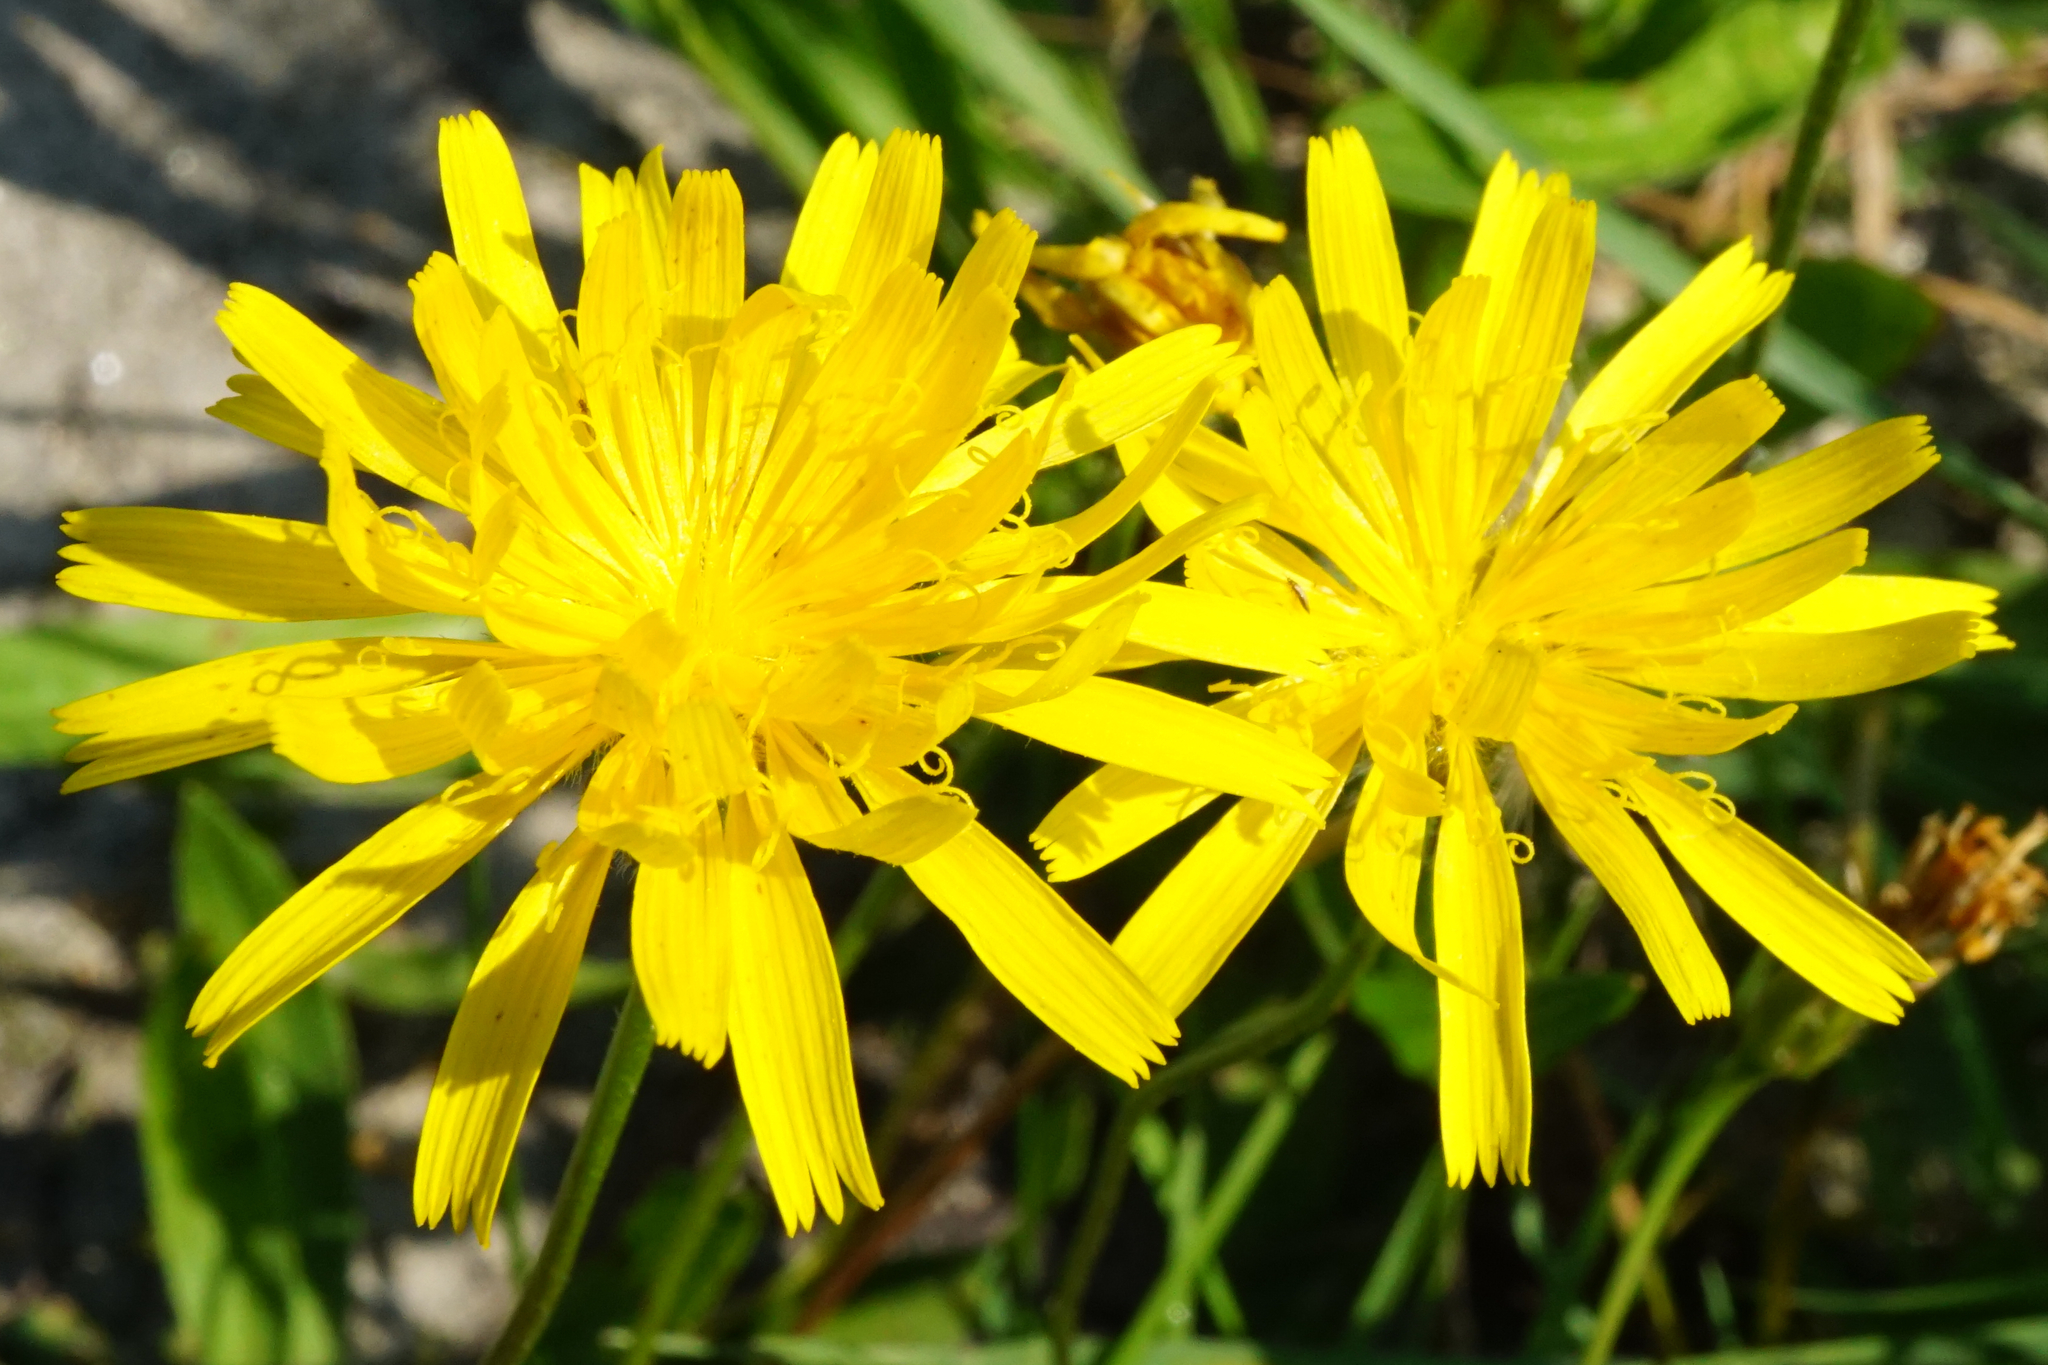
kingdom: Plantae
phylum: Tracheophyta
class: Magnoliopsida
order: Asterales
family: Asteraceae
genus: Leontodon
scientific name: Leontodon hispidus
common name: Rough hawkbit
